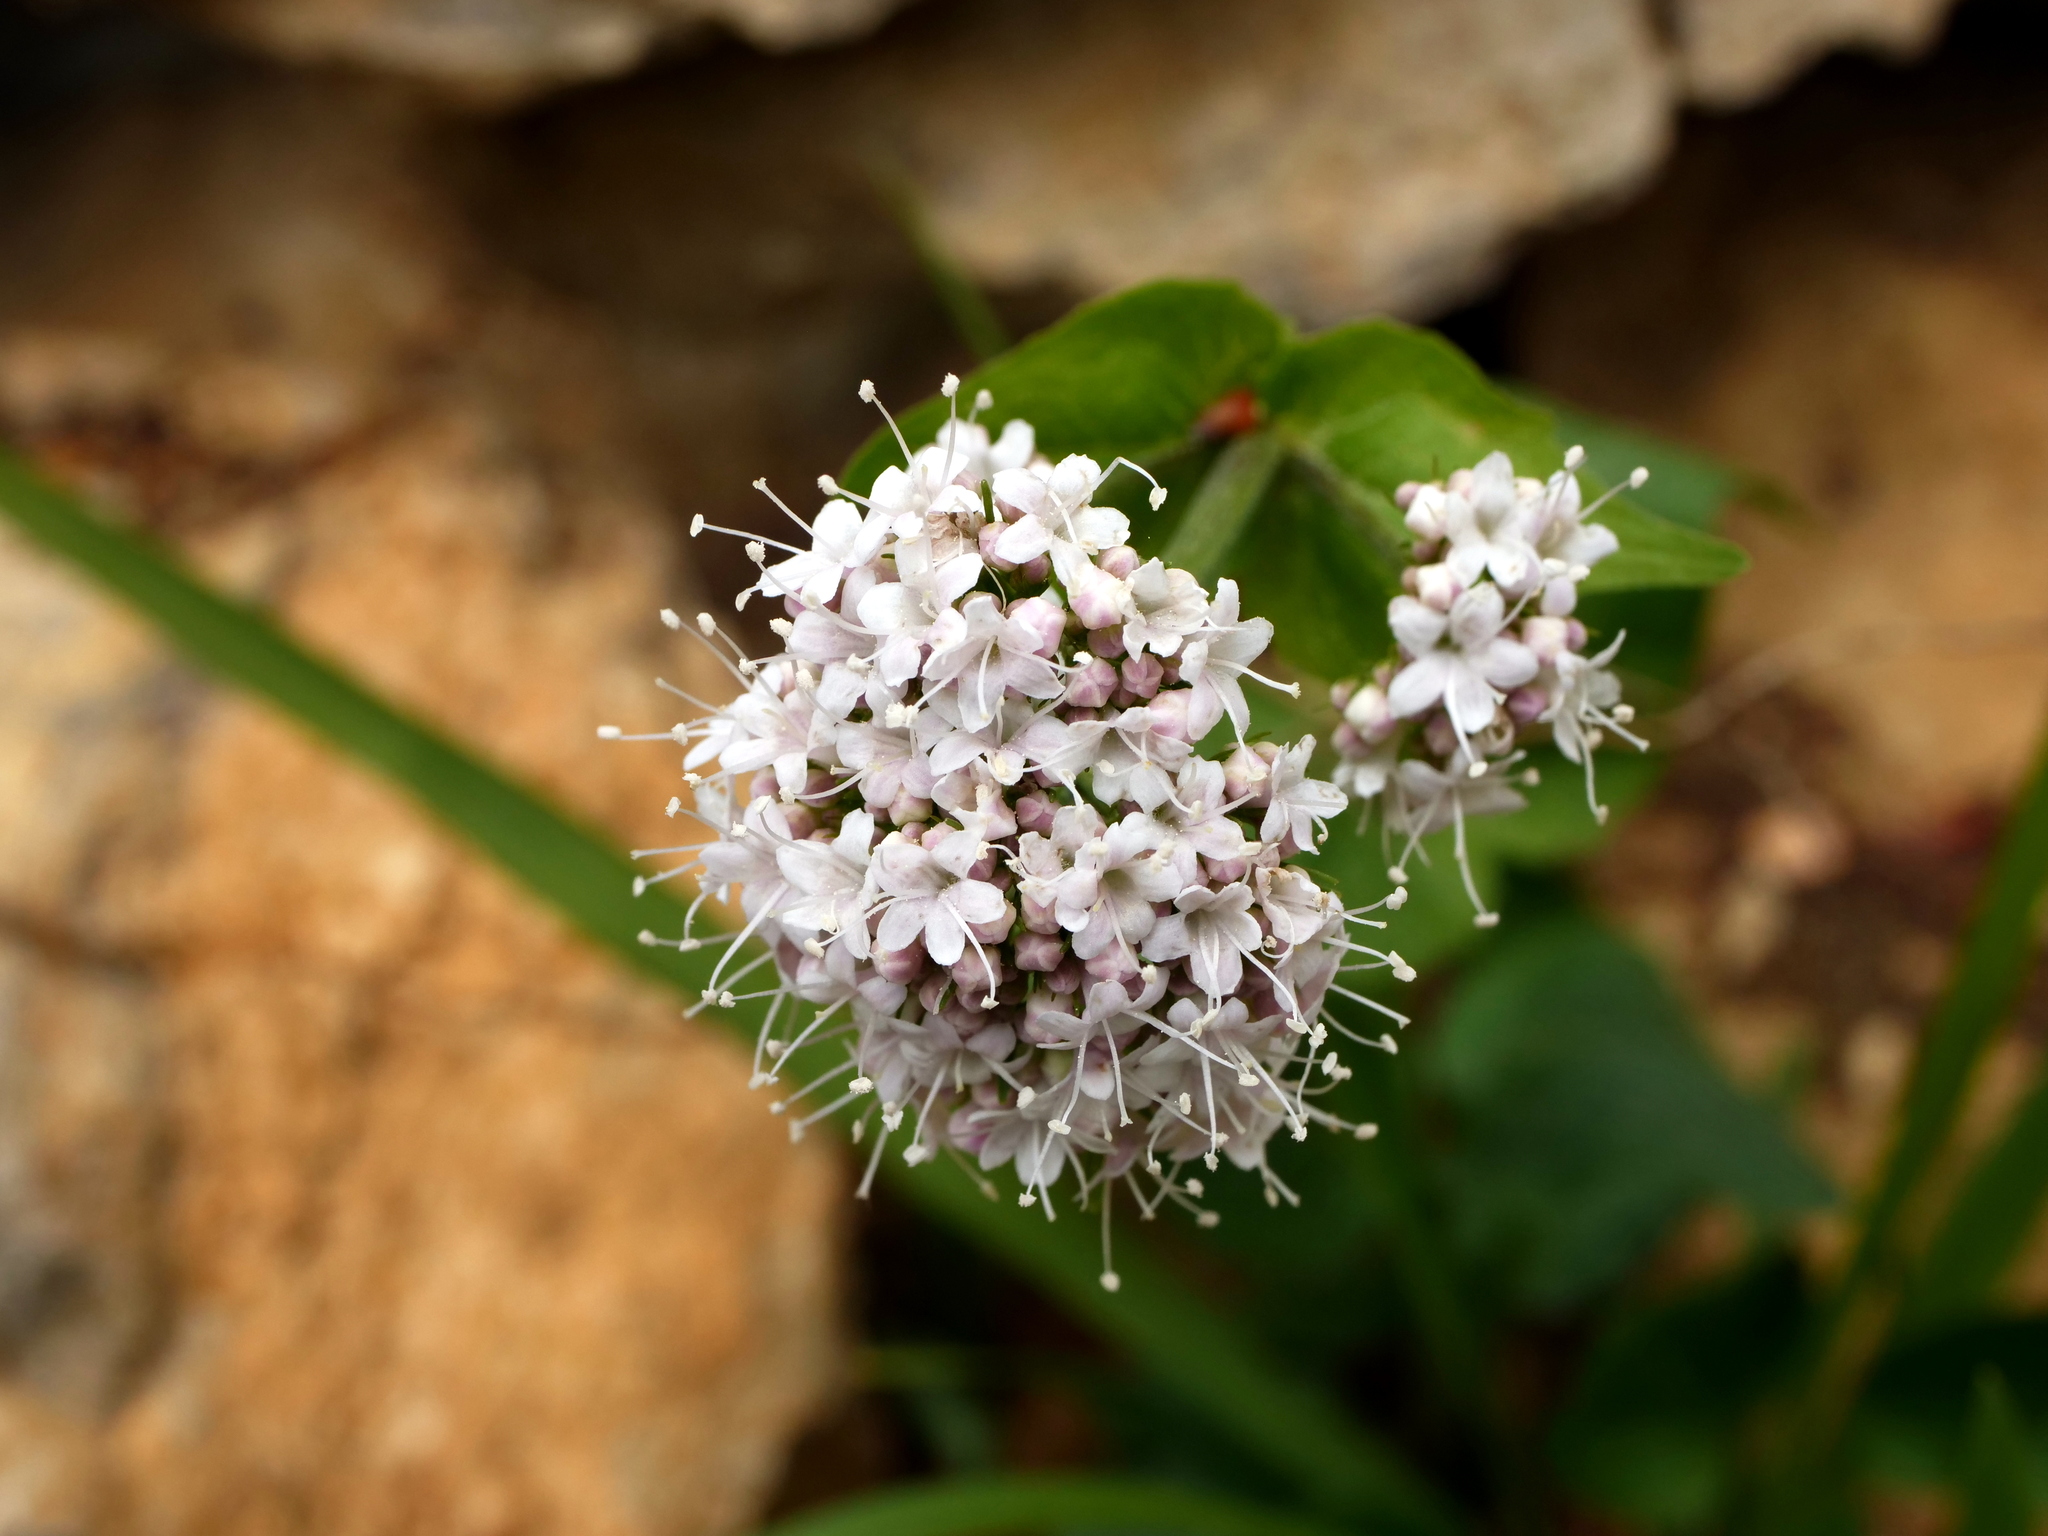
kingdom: Plantae
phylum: Tracheophyta
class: Magnoliopsida
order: Dipsacales
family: Caprifoliaceae
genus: Valeriana
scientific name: Valeriana montana
